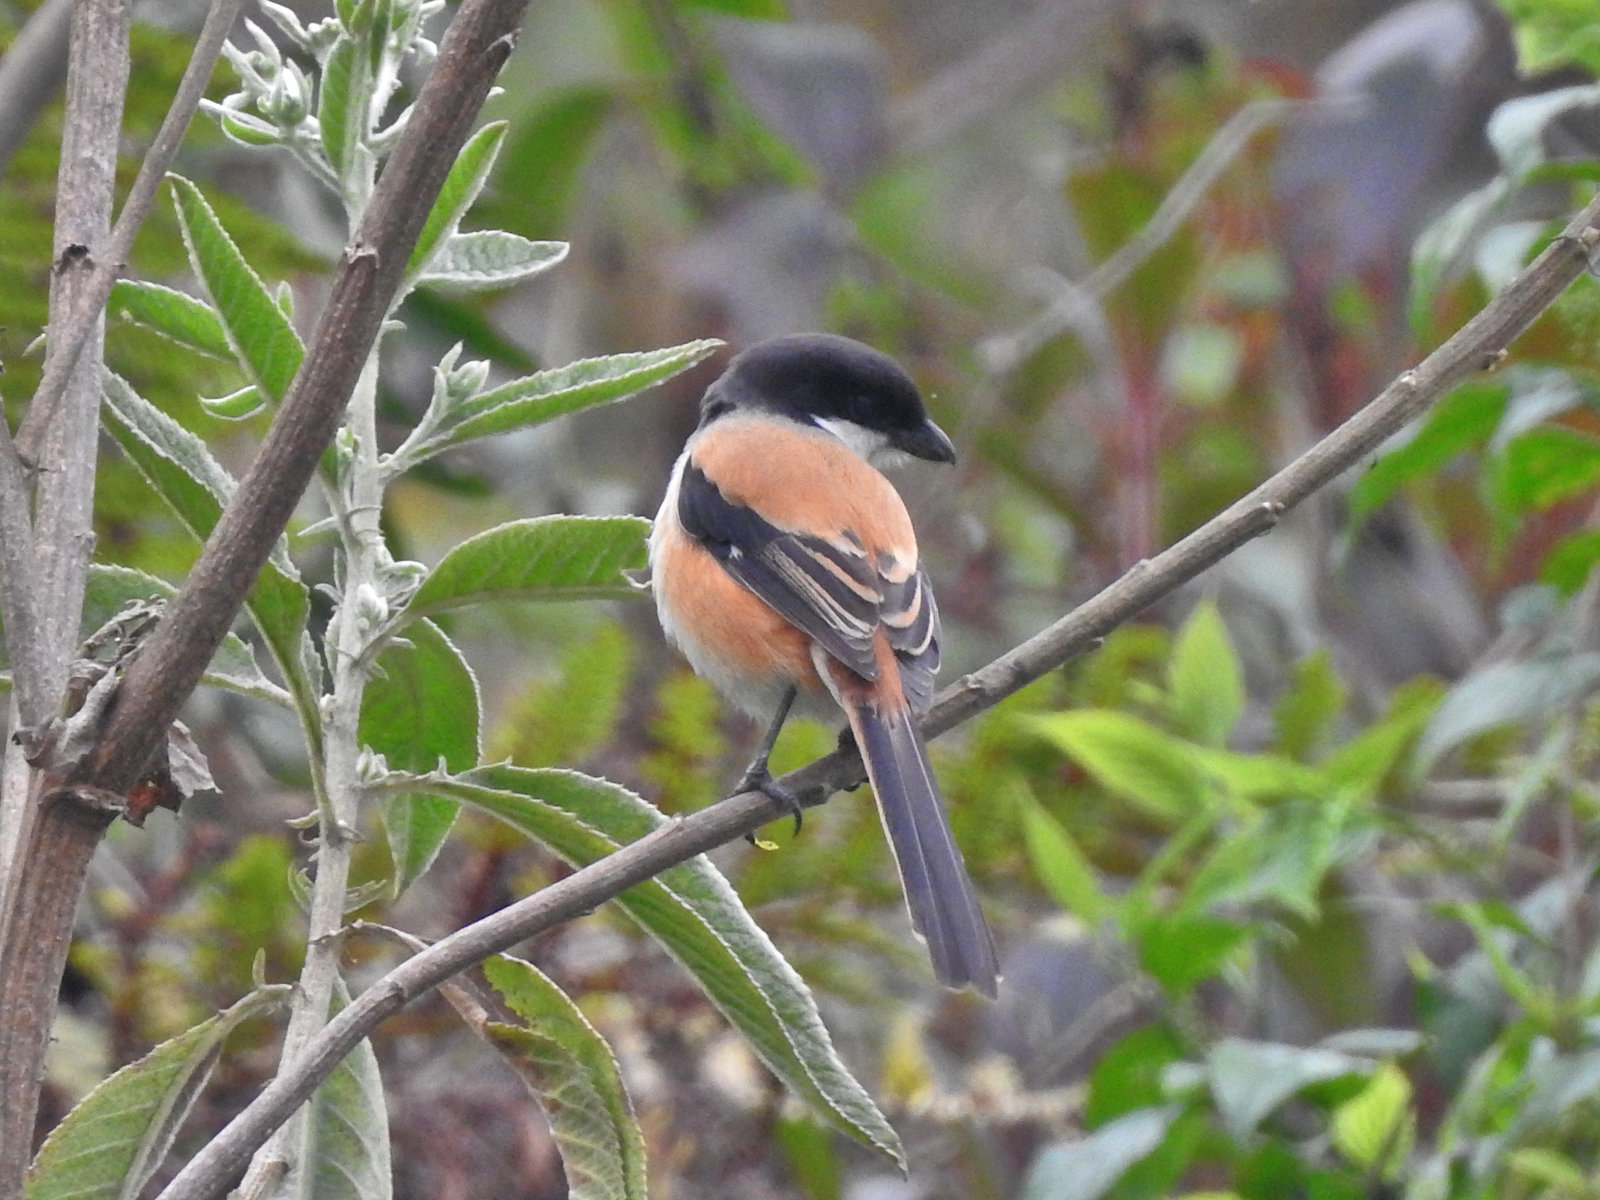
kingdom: Animalia
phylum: Chordata
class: Aves
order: Passeriformes
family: Laniidae
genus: Lanius
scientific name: Lanius schach
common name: Long-tailed shrike
